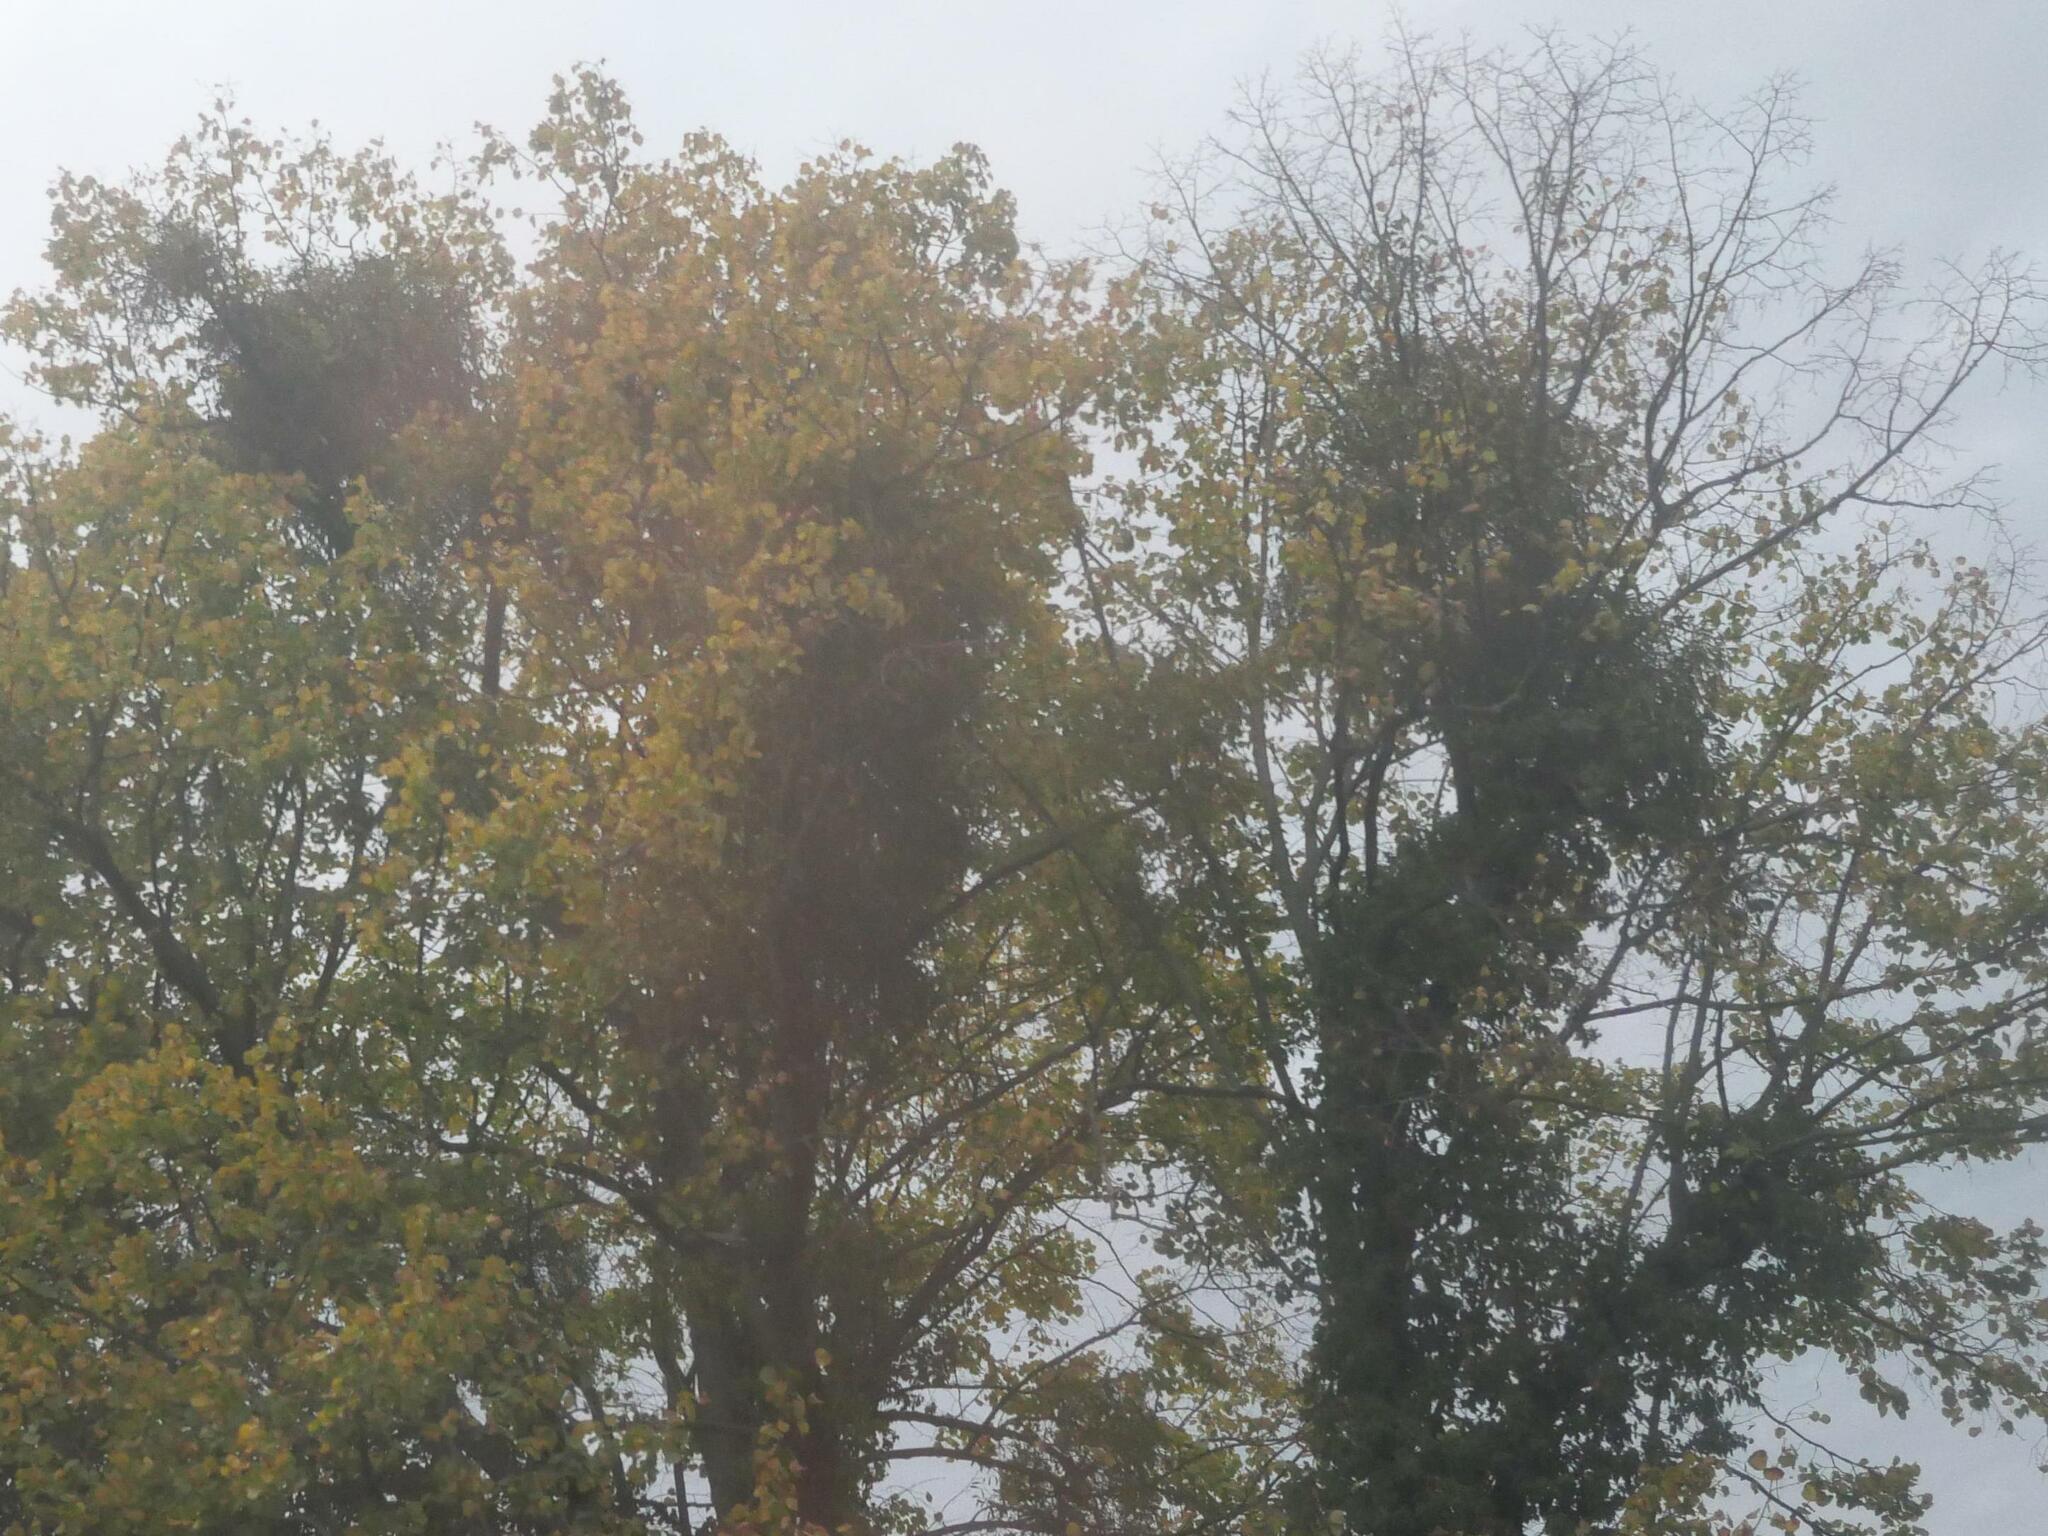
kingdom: Plantae
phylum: Tracheophyta
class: Magnoliopsida
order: Santalales
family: Viscaceae
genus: Viscum
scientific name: Viscum album
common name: Mistletoe
